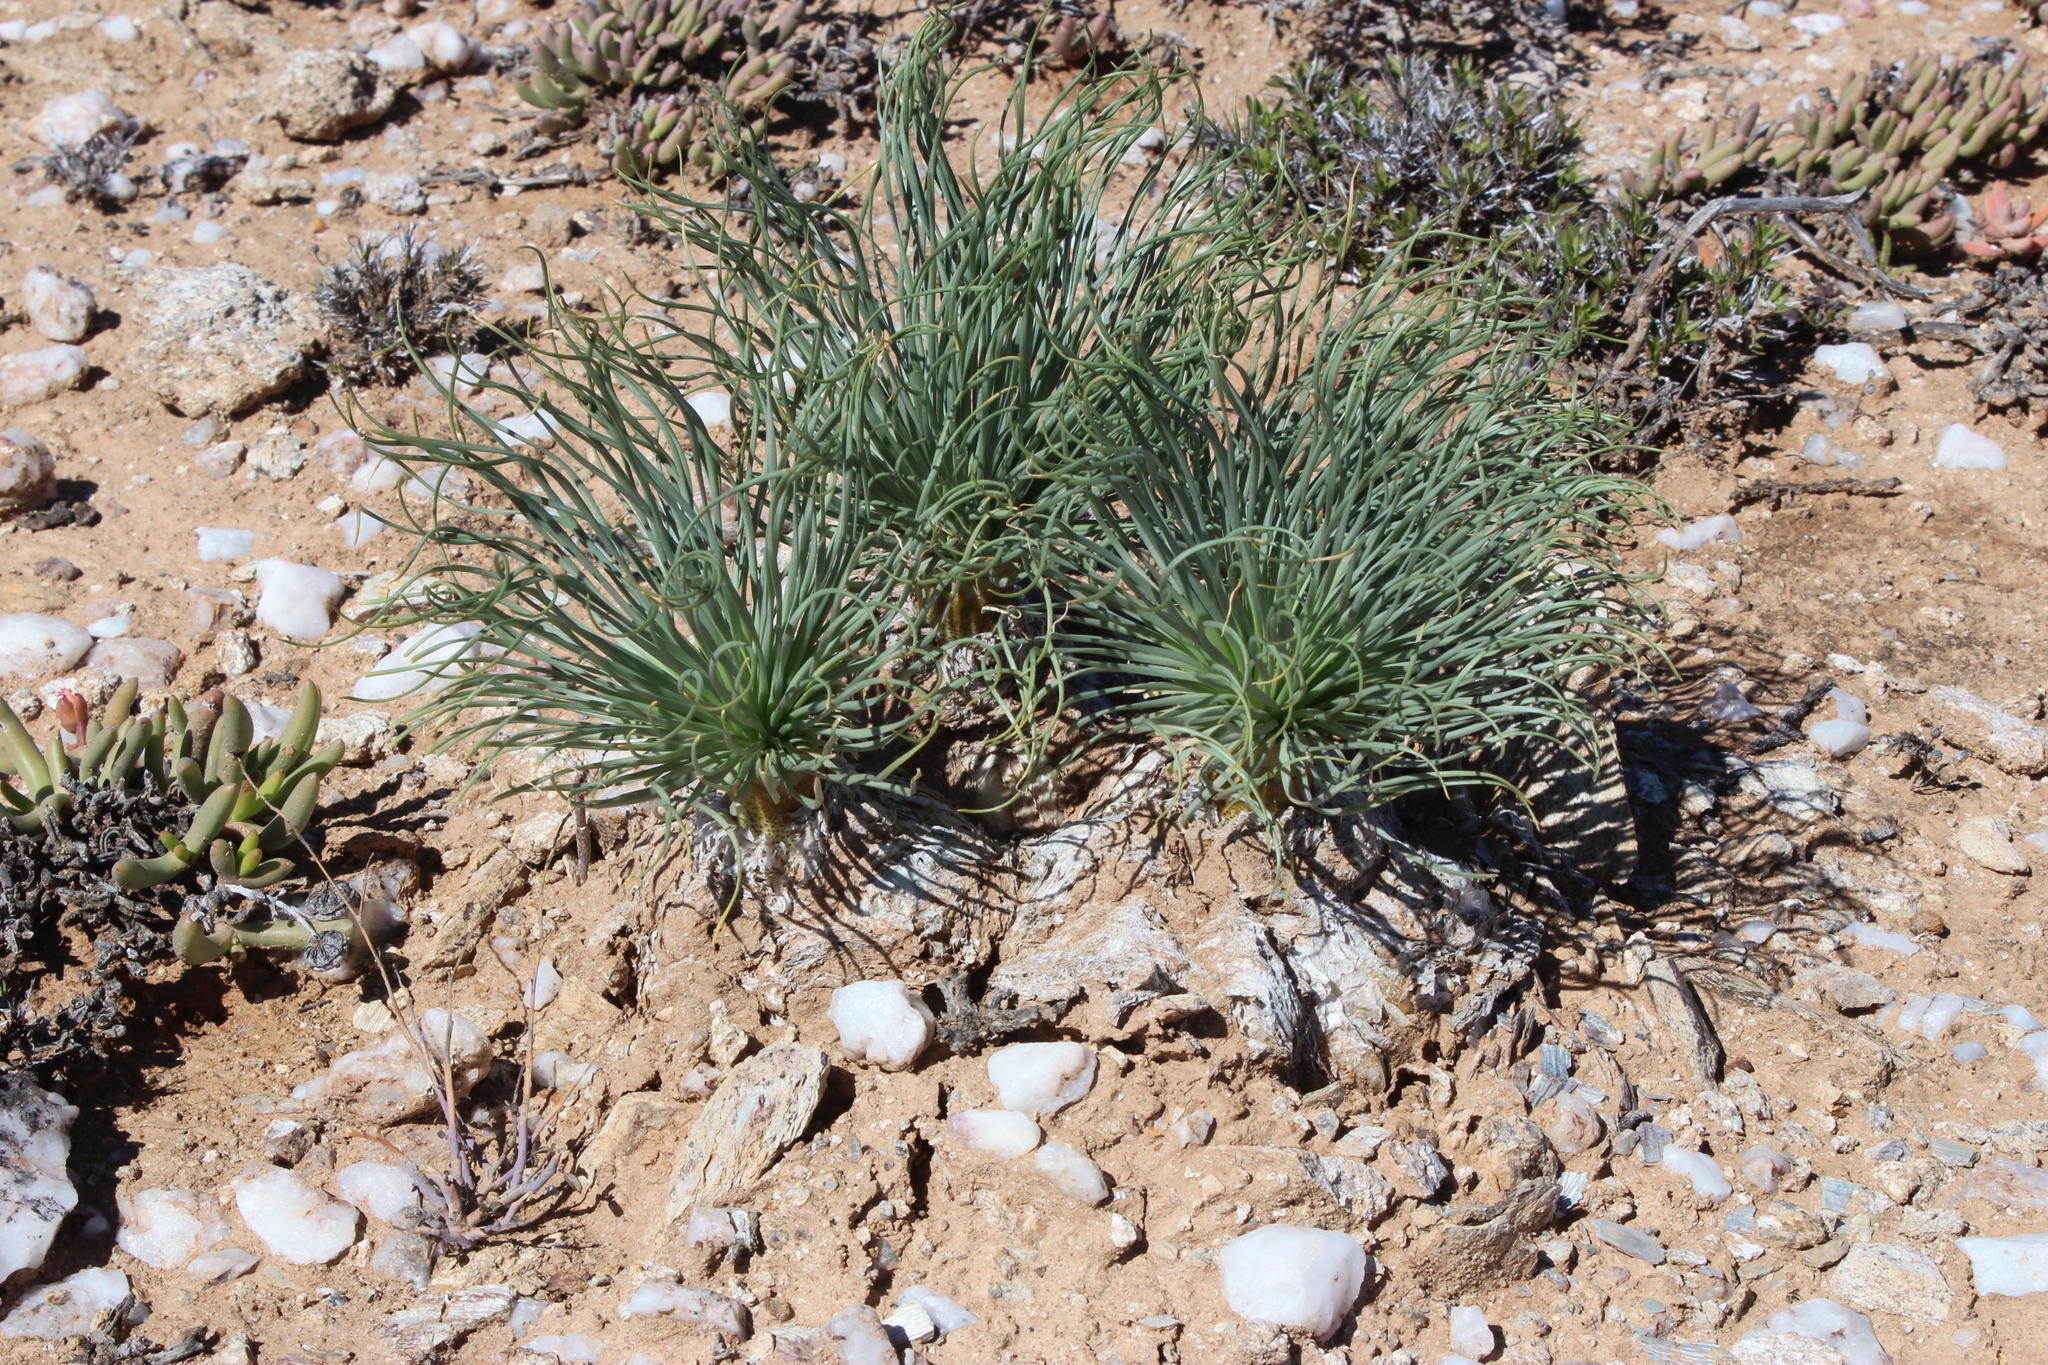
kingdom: Plantae
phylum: Tracheophyta
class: Liliopsida
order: Asparagales
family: Amaryllidaceae
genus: Gethyllis
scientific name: Gethyllis grandiflora
